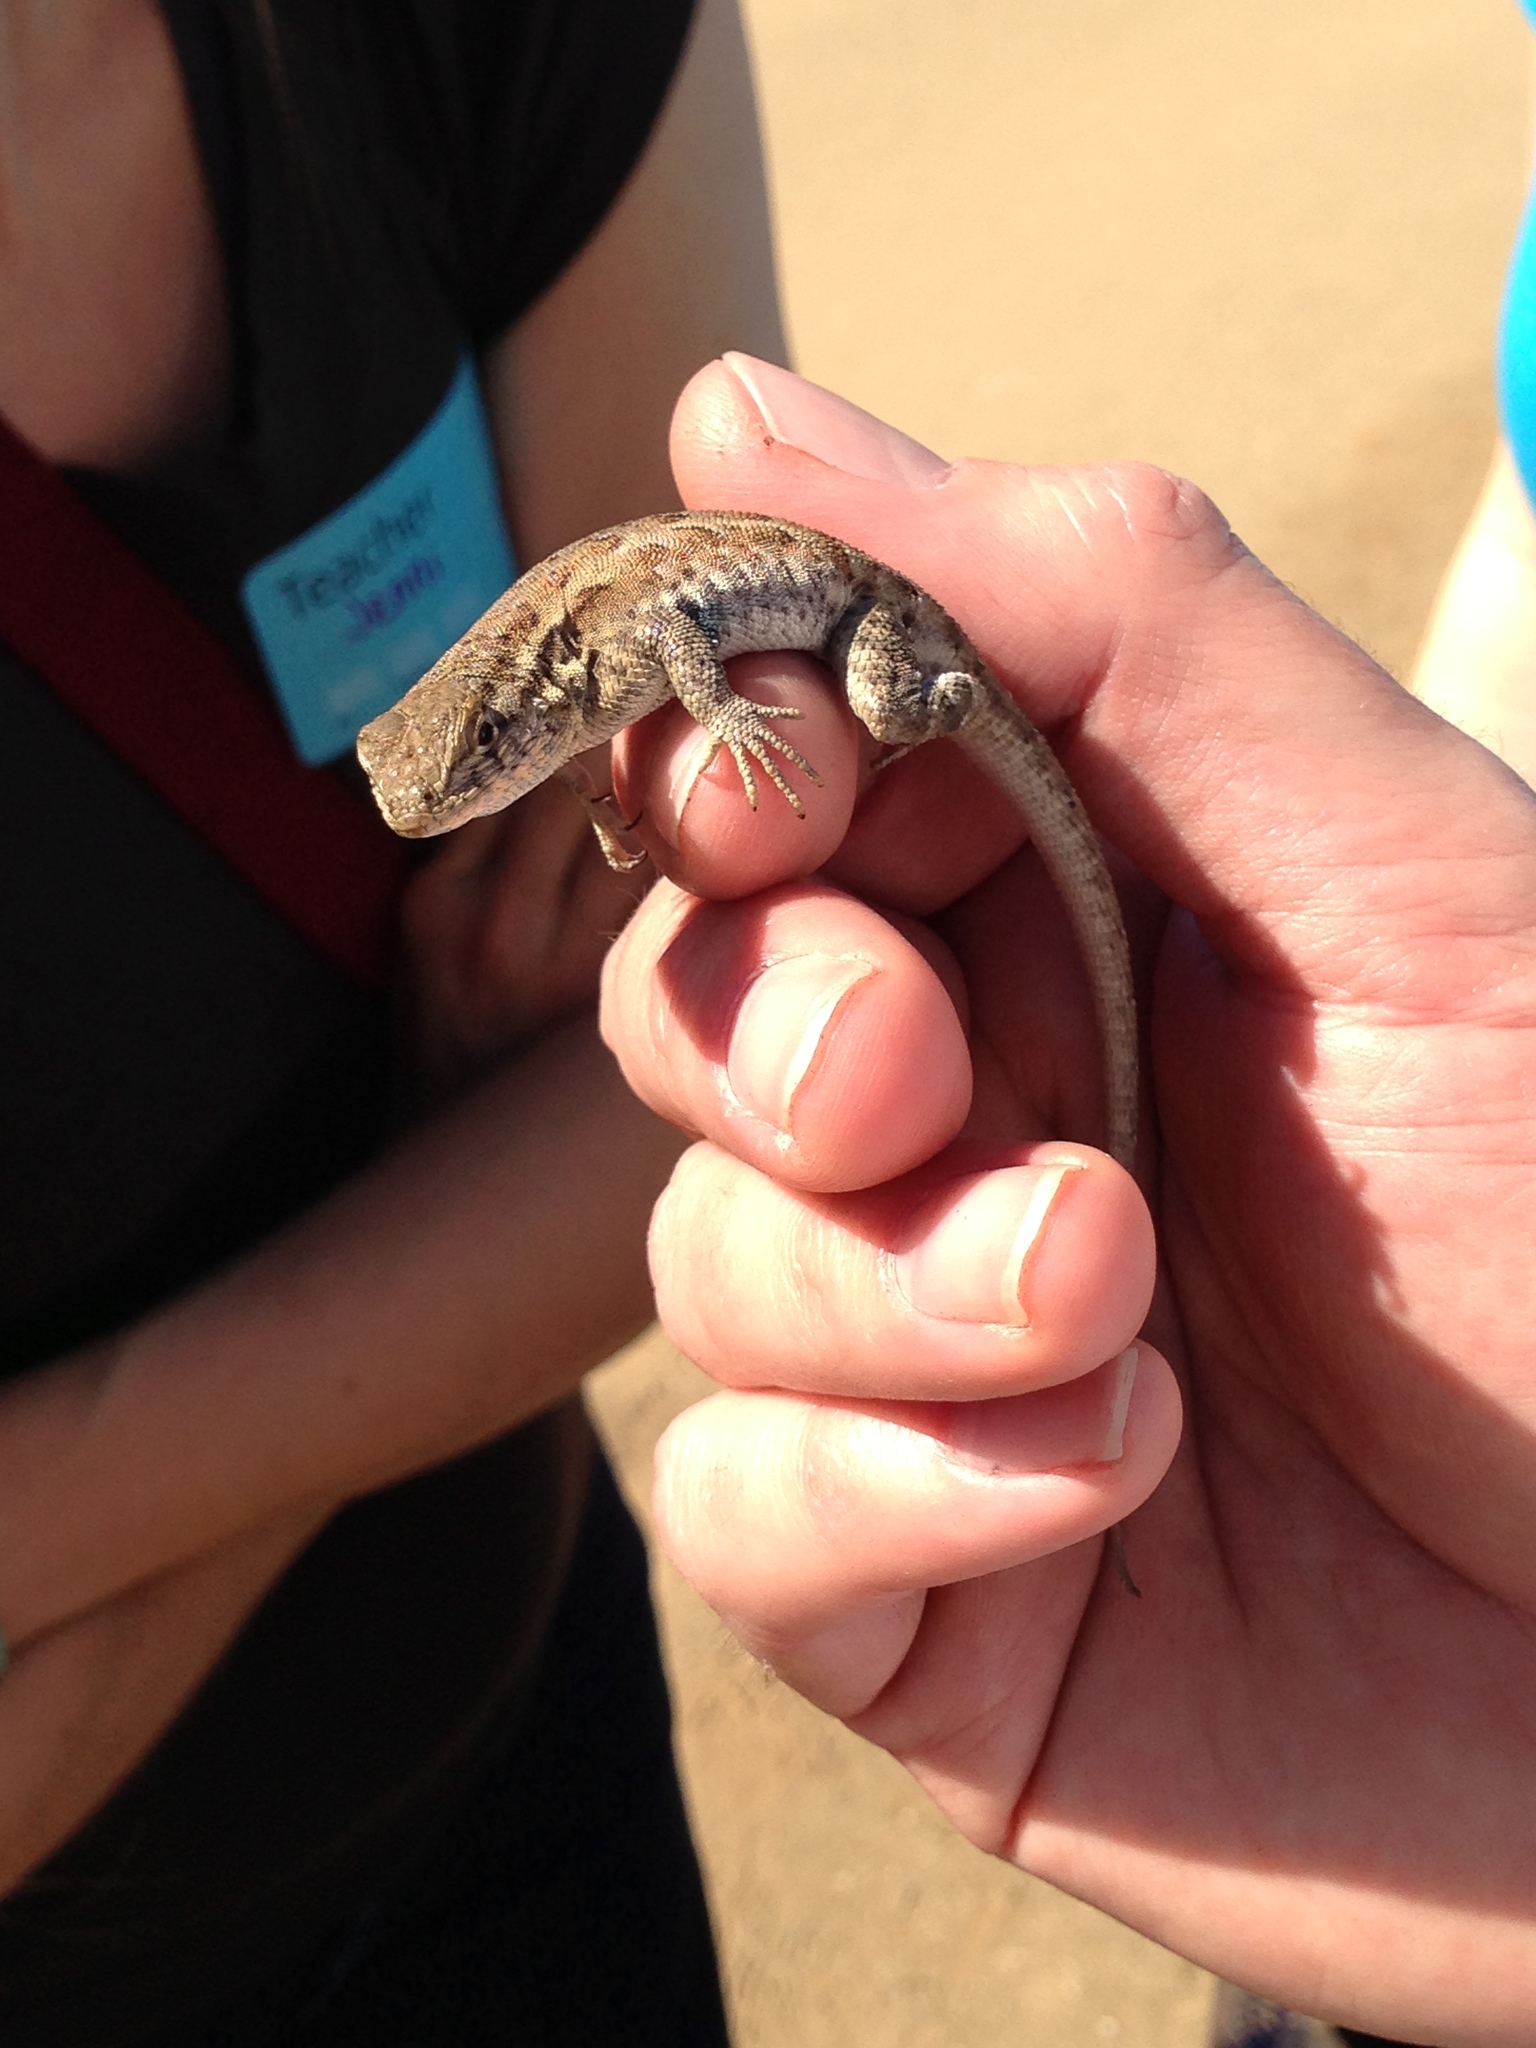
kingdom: Animalia
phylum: Chordata
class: Squamata
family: Phrynosomatidae
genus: Uta
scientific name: Uta stansburiana
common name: Side-blotched lizard
